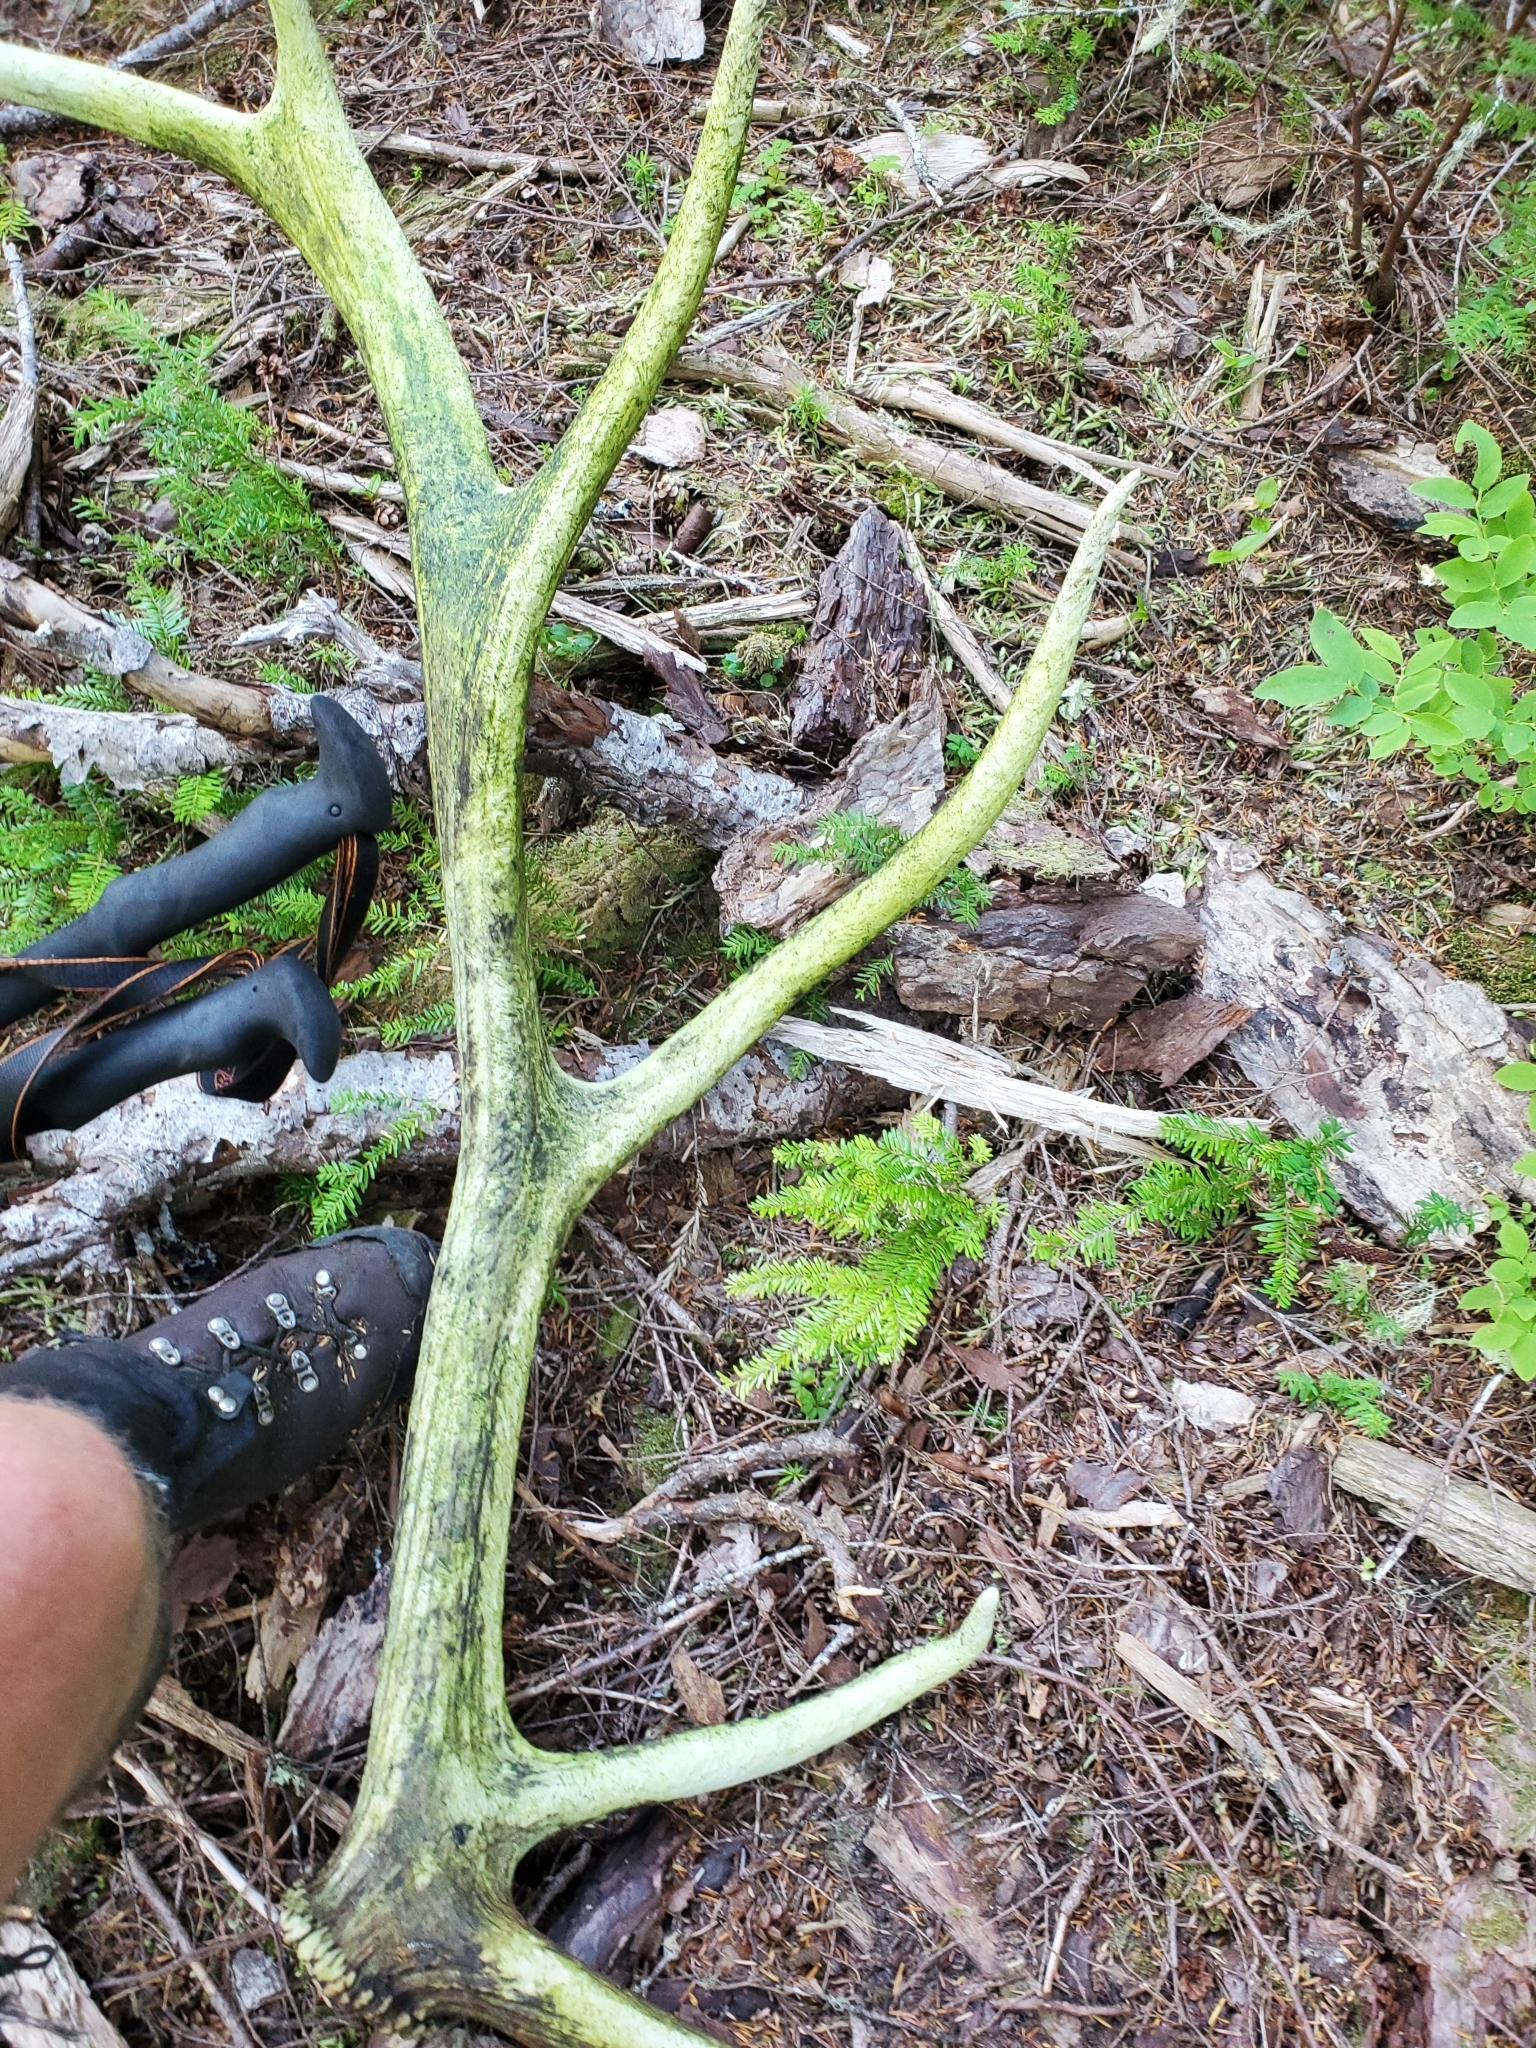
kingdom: Animalia
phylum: Chordata
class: Mammalia
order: Artiodactyla
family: Cervidae
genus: Cervus
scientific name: Cervus elaphus
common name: Red deer
